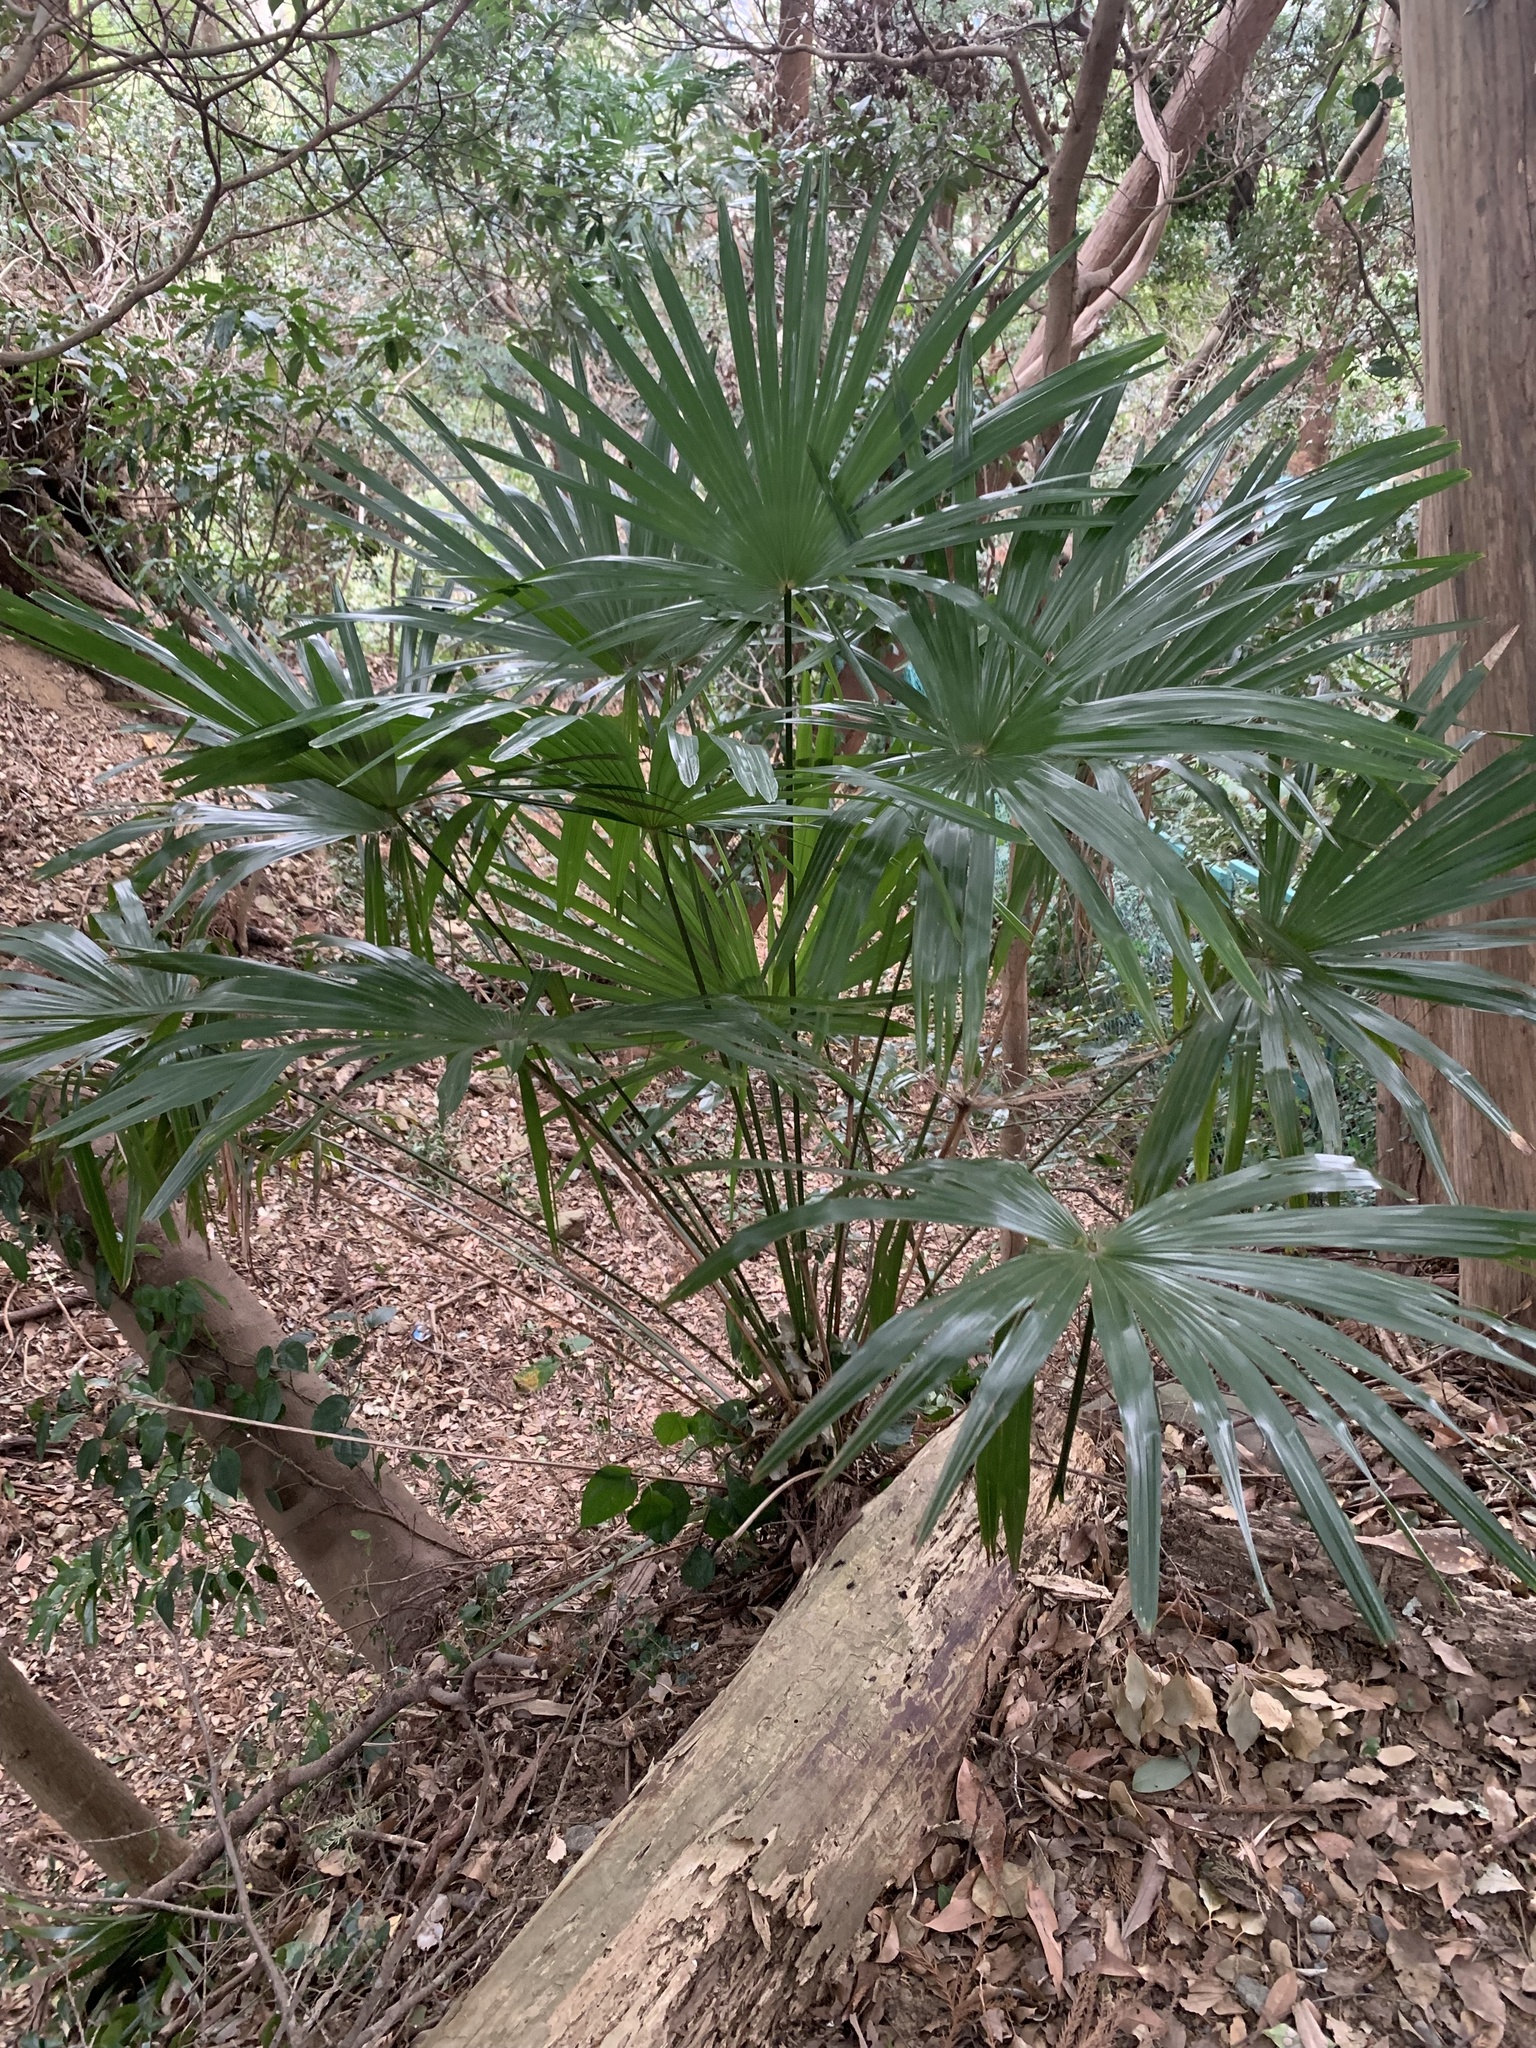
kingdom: Plantae
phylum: Tracheophyta
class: Liliopsida
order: Arecales
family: Arecaceae
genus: Trachycarpus
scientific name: Trachycarpus fortunei
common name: Chusan palm
